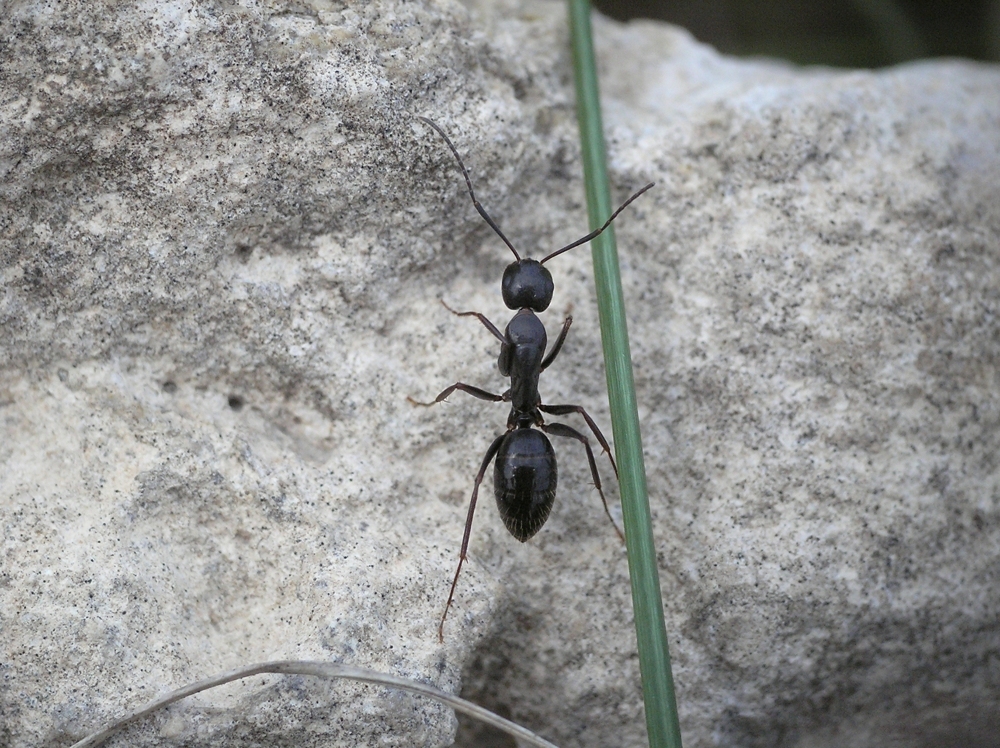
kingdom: Animalia
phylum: Arthropoda
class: Insecta
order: Hymenoptera
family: Formicidae
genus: Camponotus
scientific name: Camponotus aethiops
